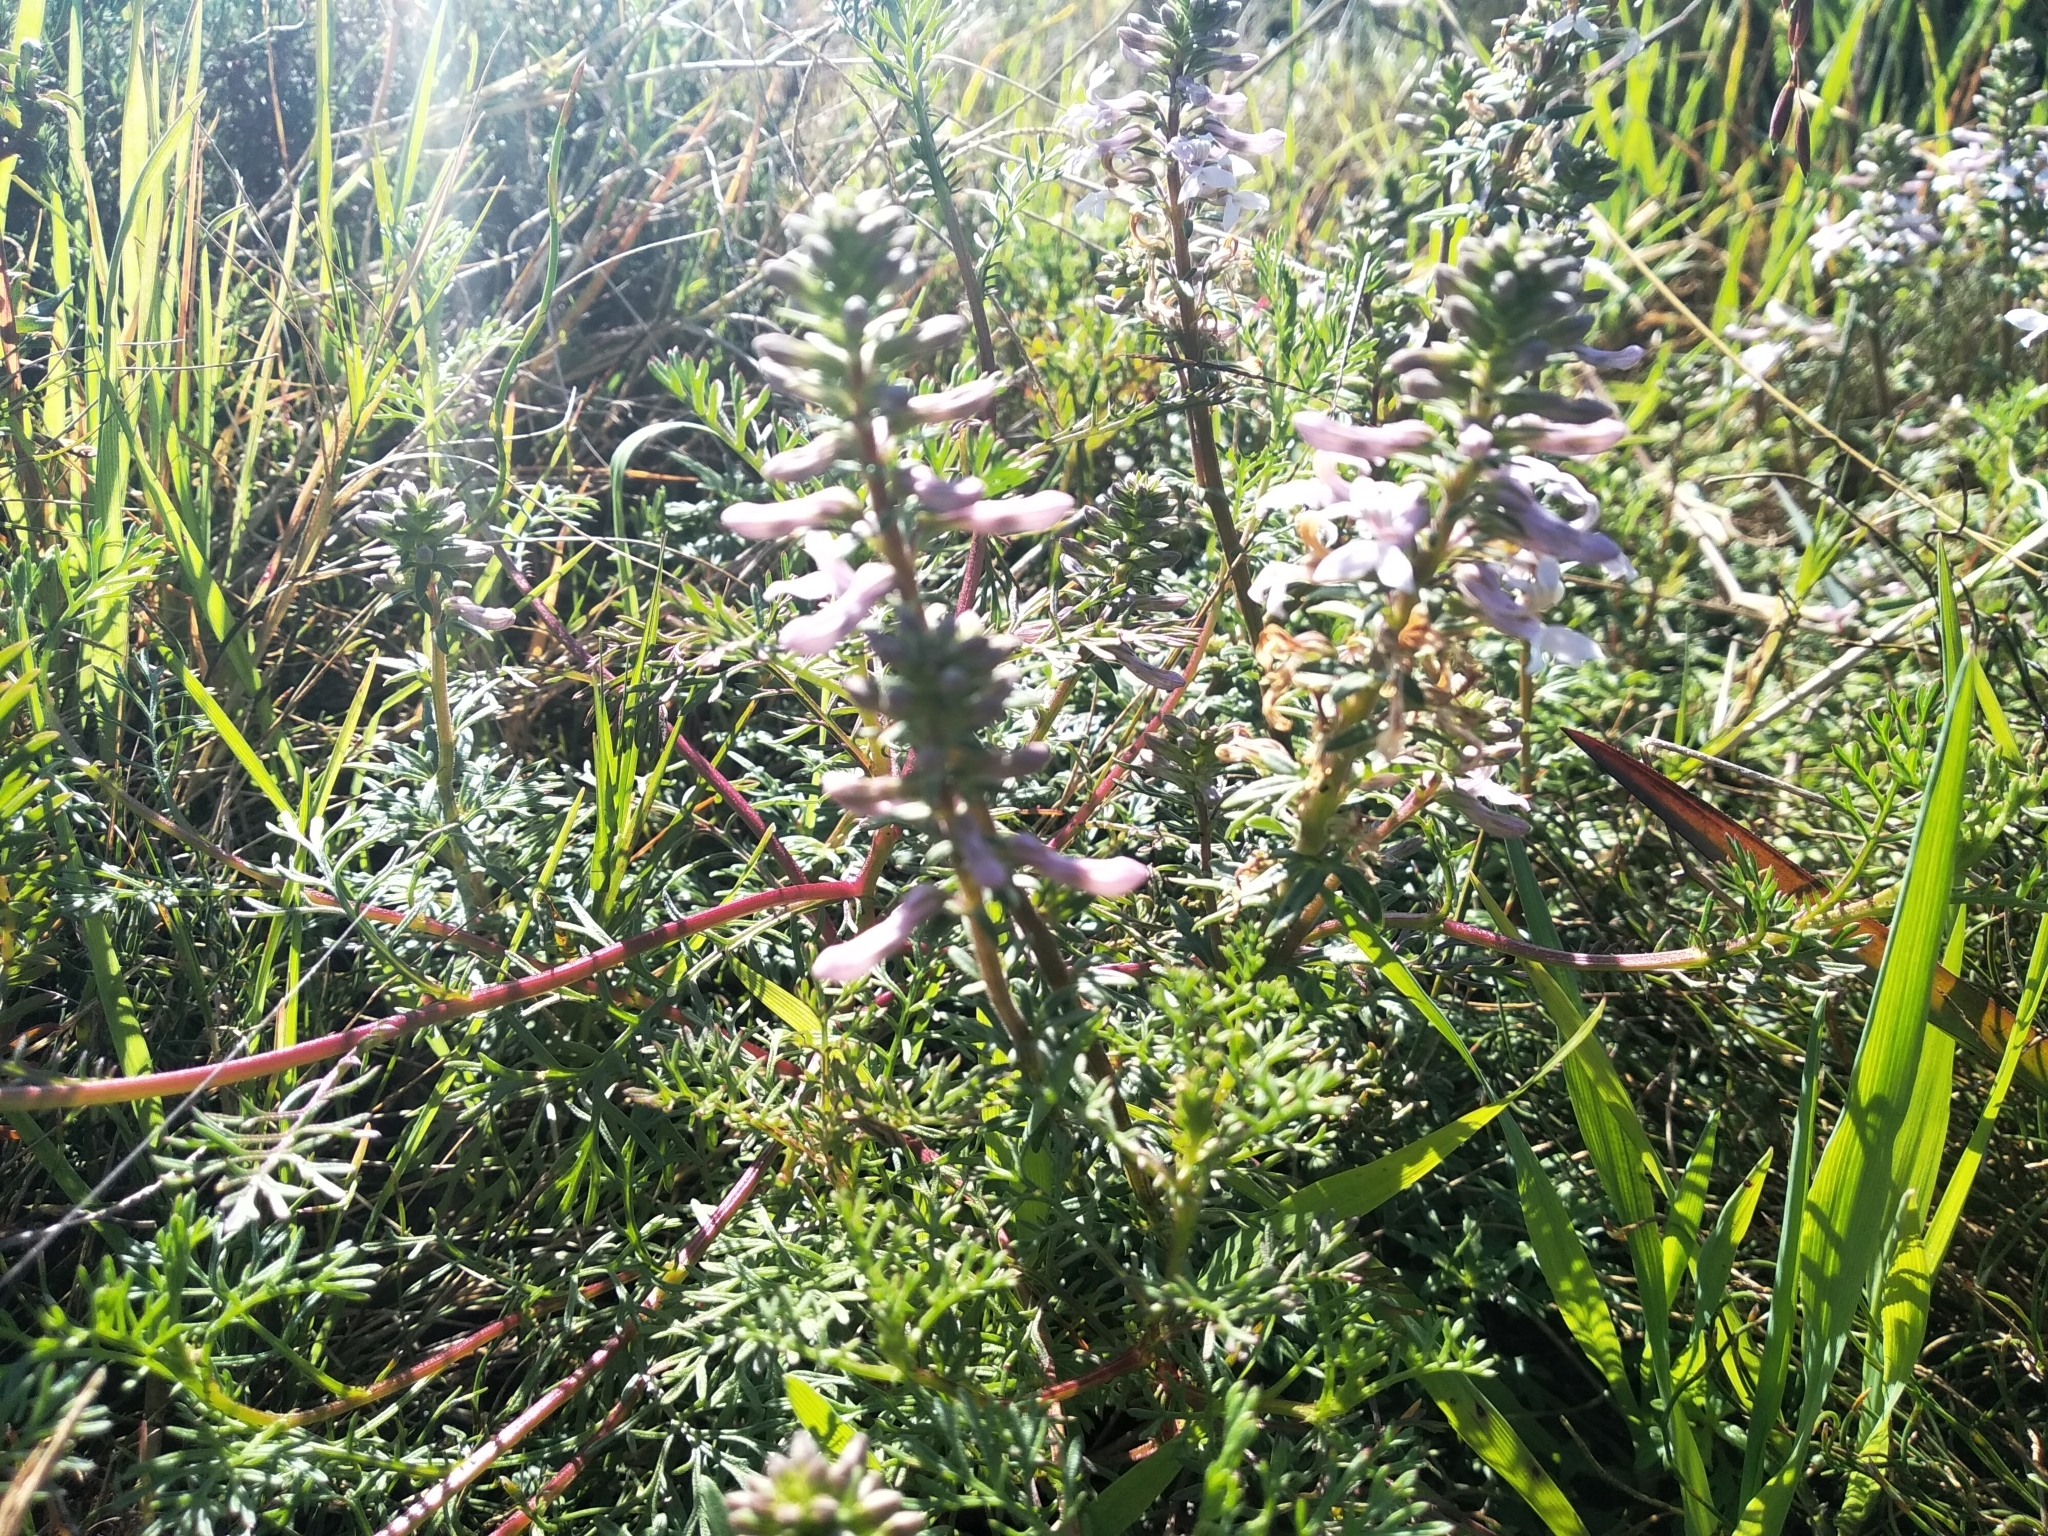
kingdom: Plantae
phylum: Tracheophyta
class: Magnoliopsida
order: Asterales
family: Campanulaceae
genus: Cyphia
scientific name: Cyphia bulbosa
